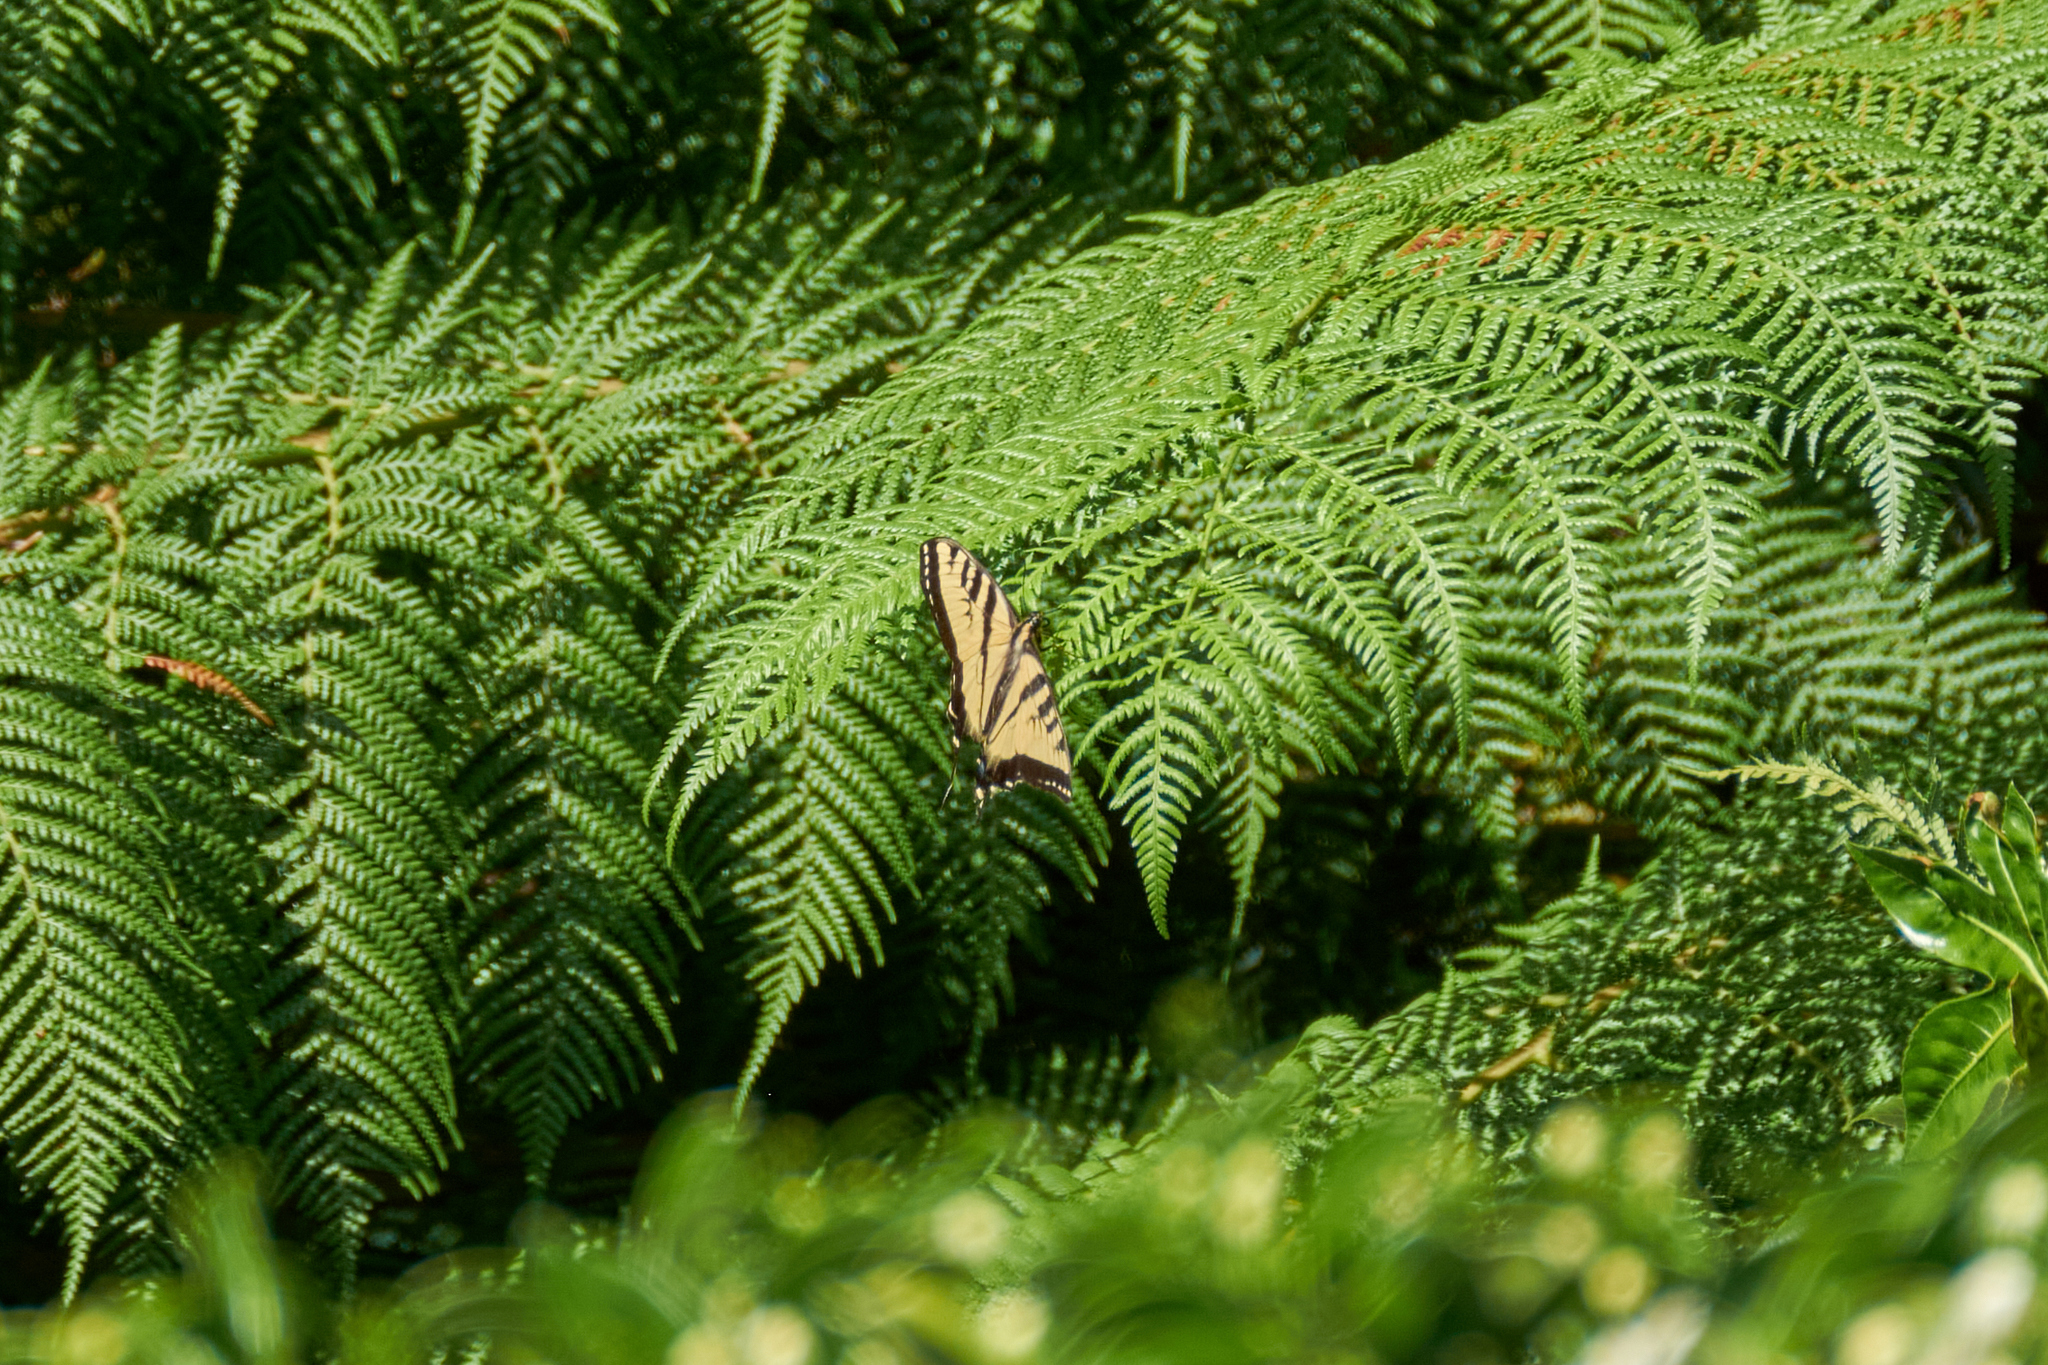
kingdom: Animalia
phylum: Arthropoda
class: Insecta
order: Lepidoptera
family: Papilionidae
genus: Papilio
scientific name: Papilio rutulus
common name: Western tiger swallowtail
